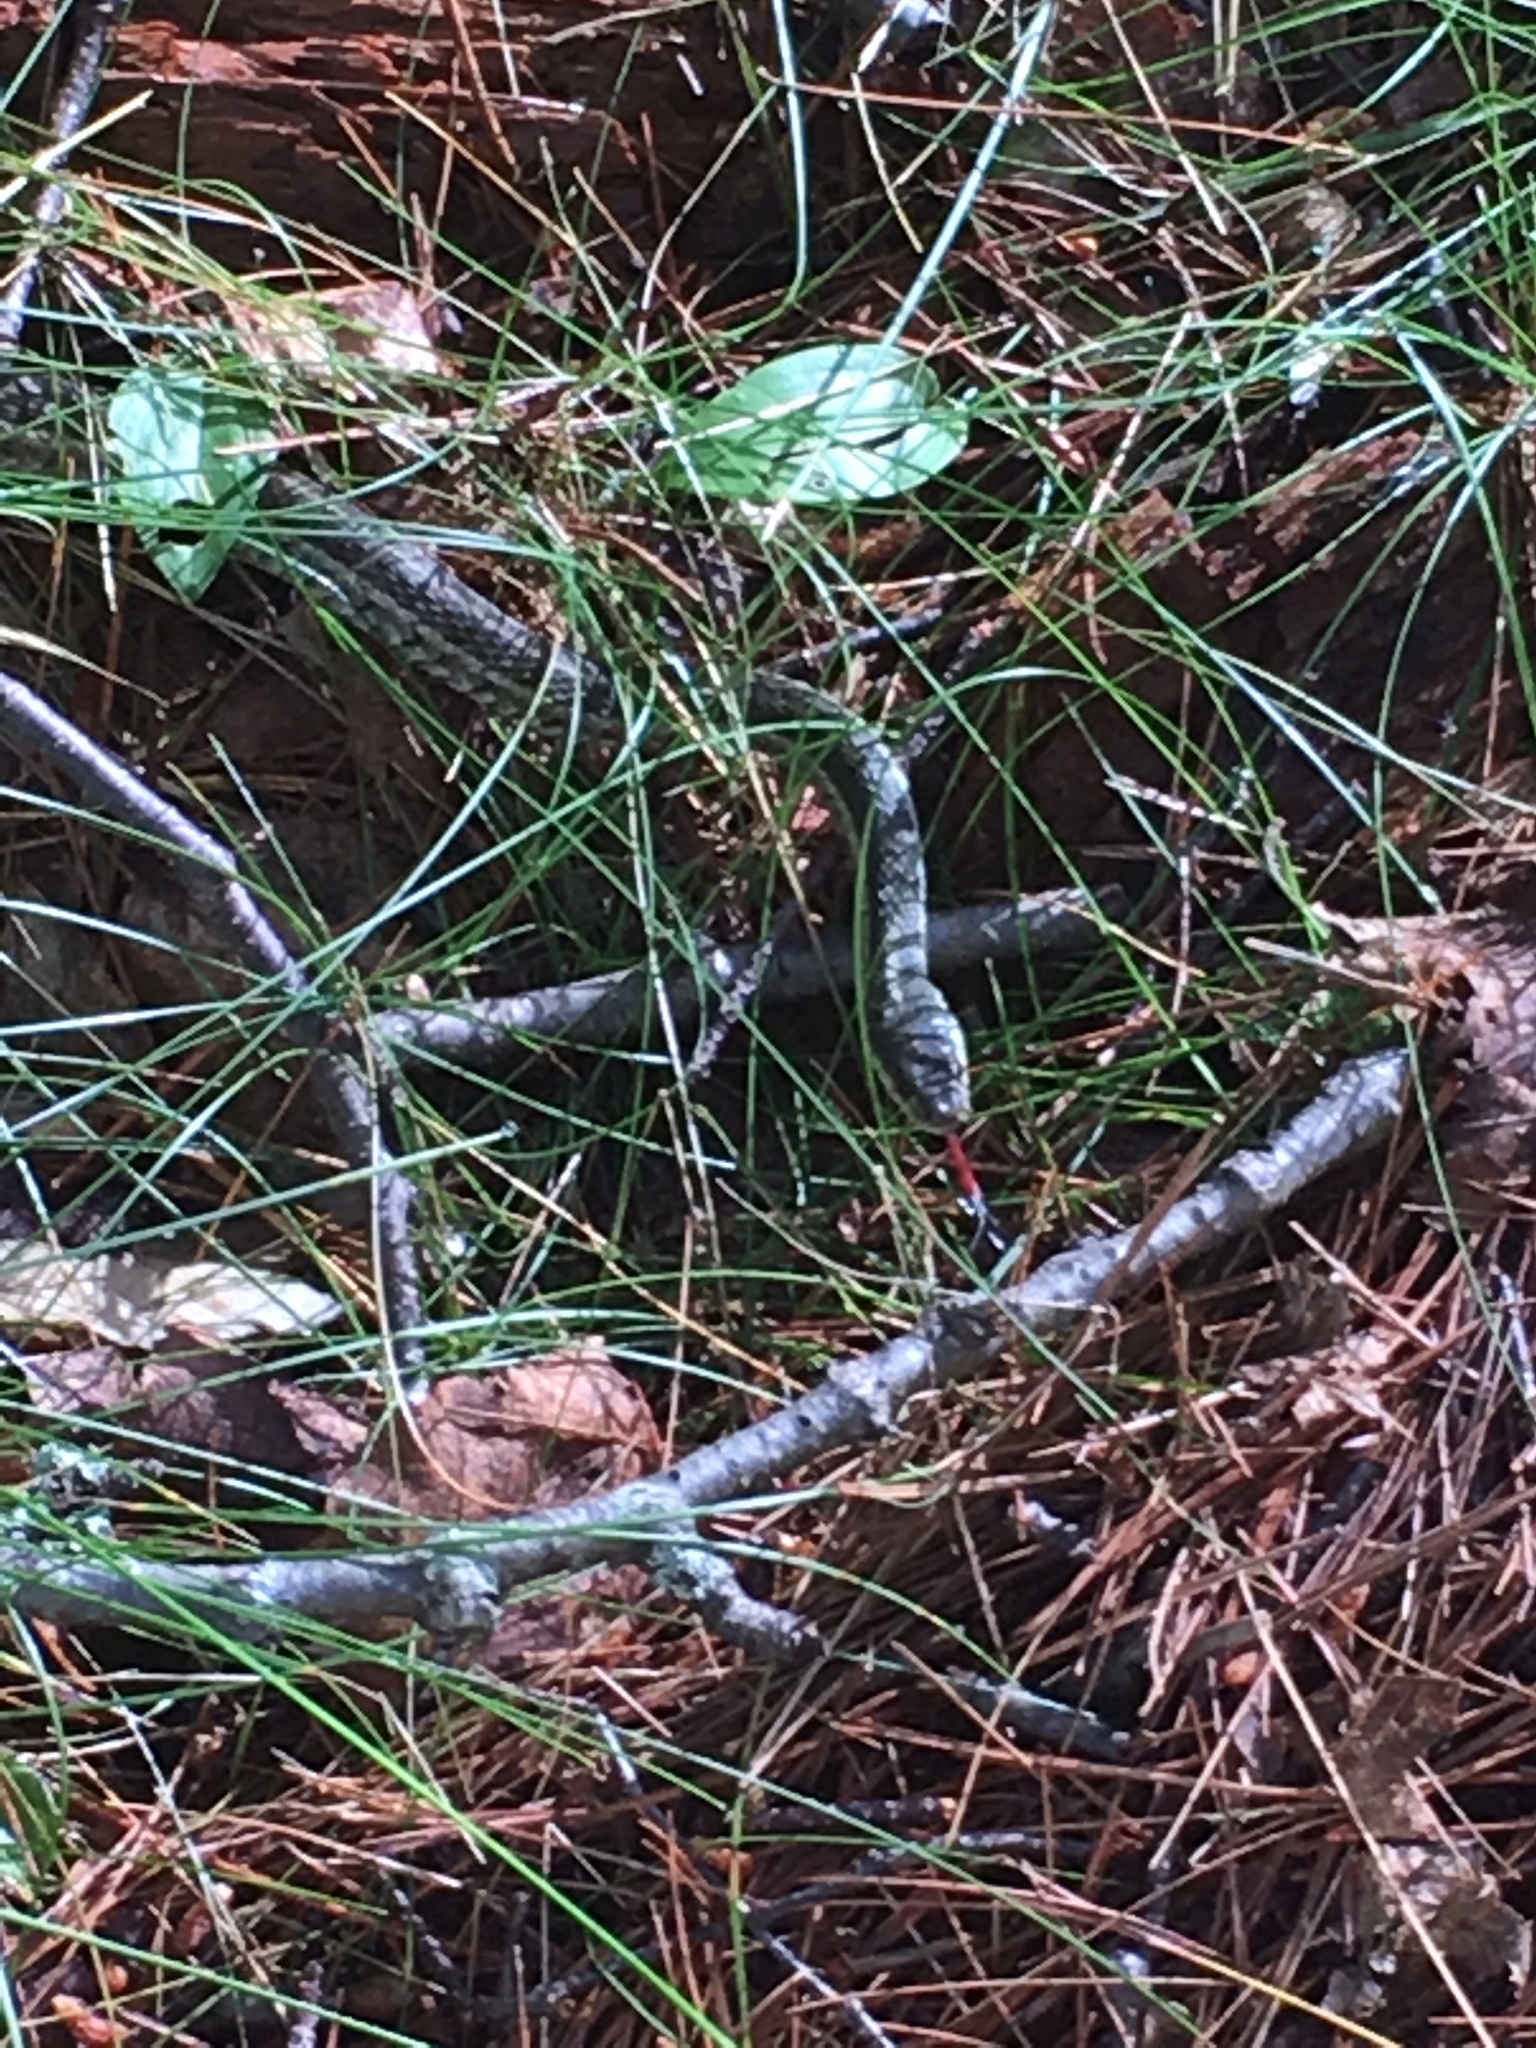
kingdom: Animalia
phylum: Chordata
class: Squamata
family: Colubridae
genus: Thamnophis
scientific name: Thamnophis sirtalis
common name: Common garter snake
